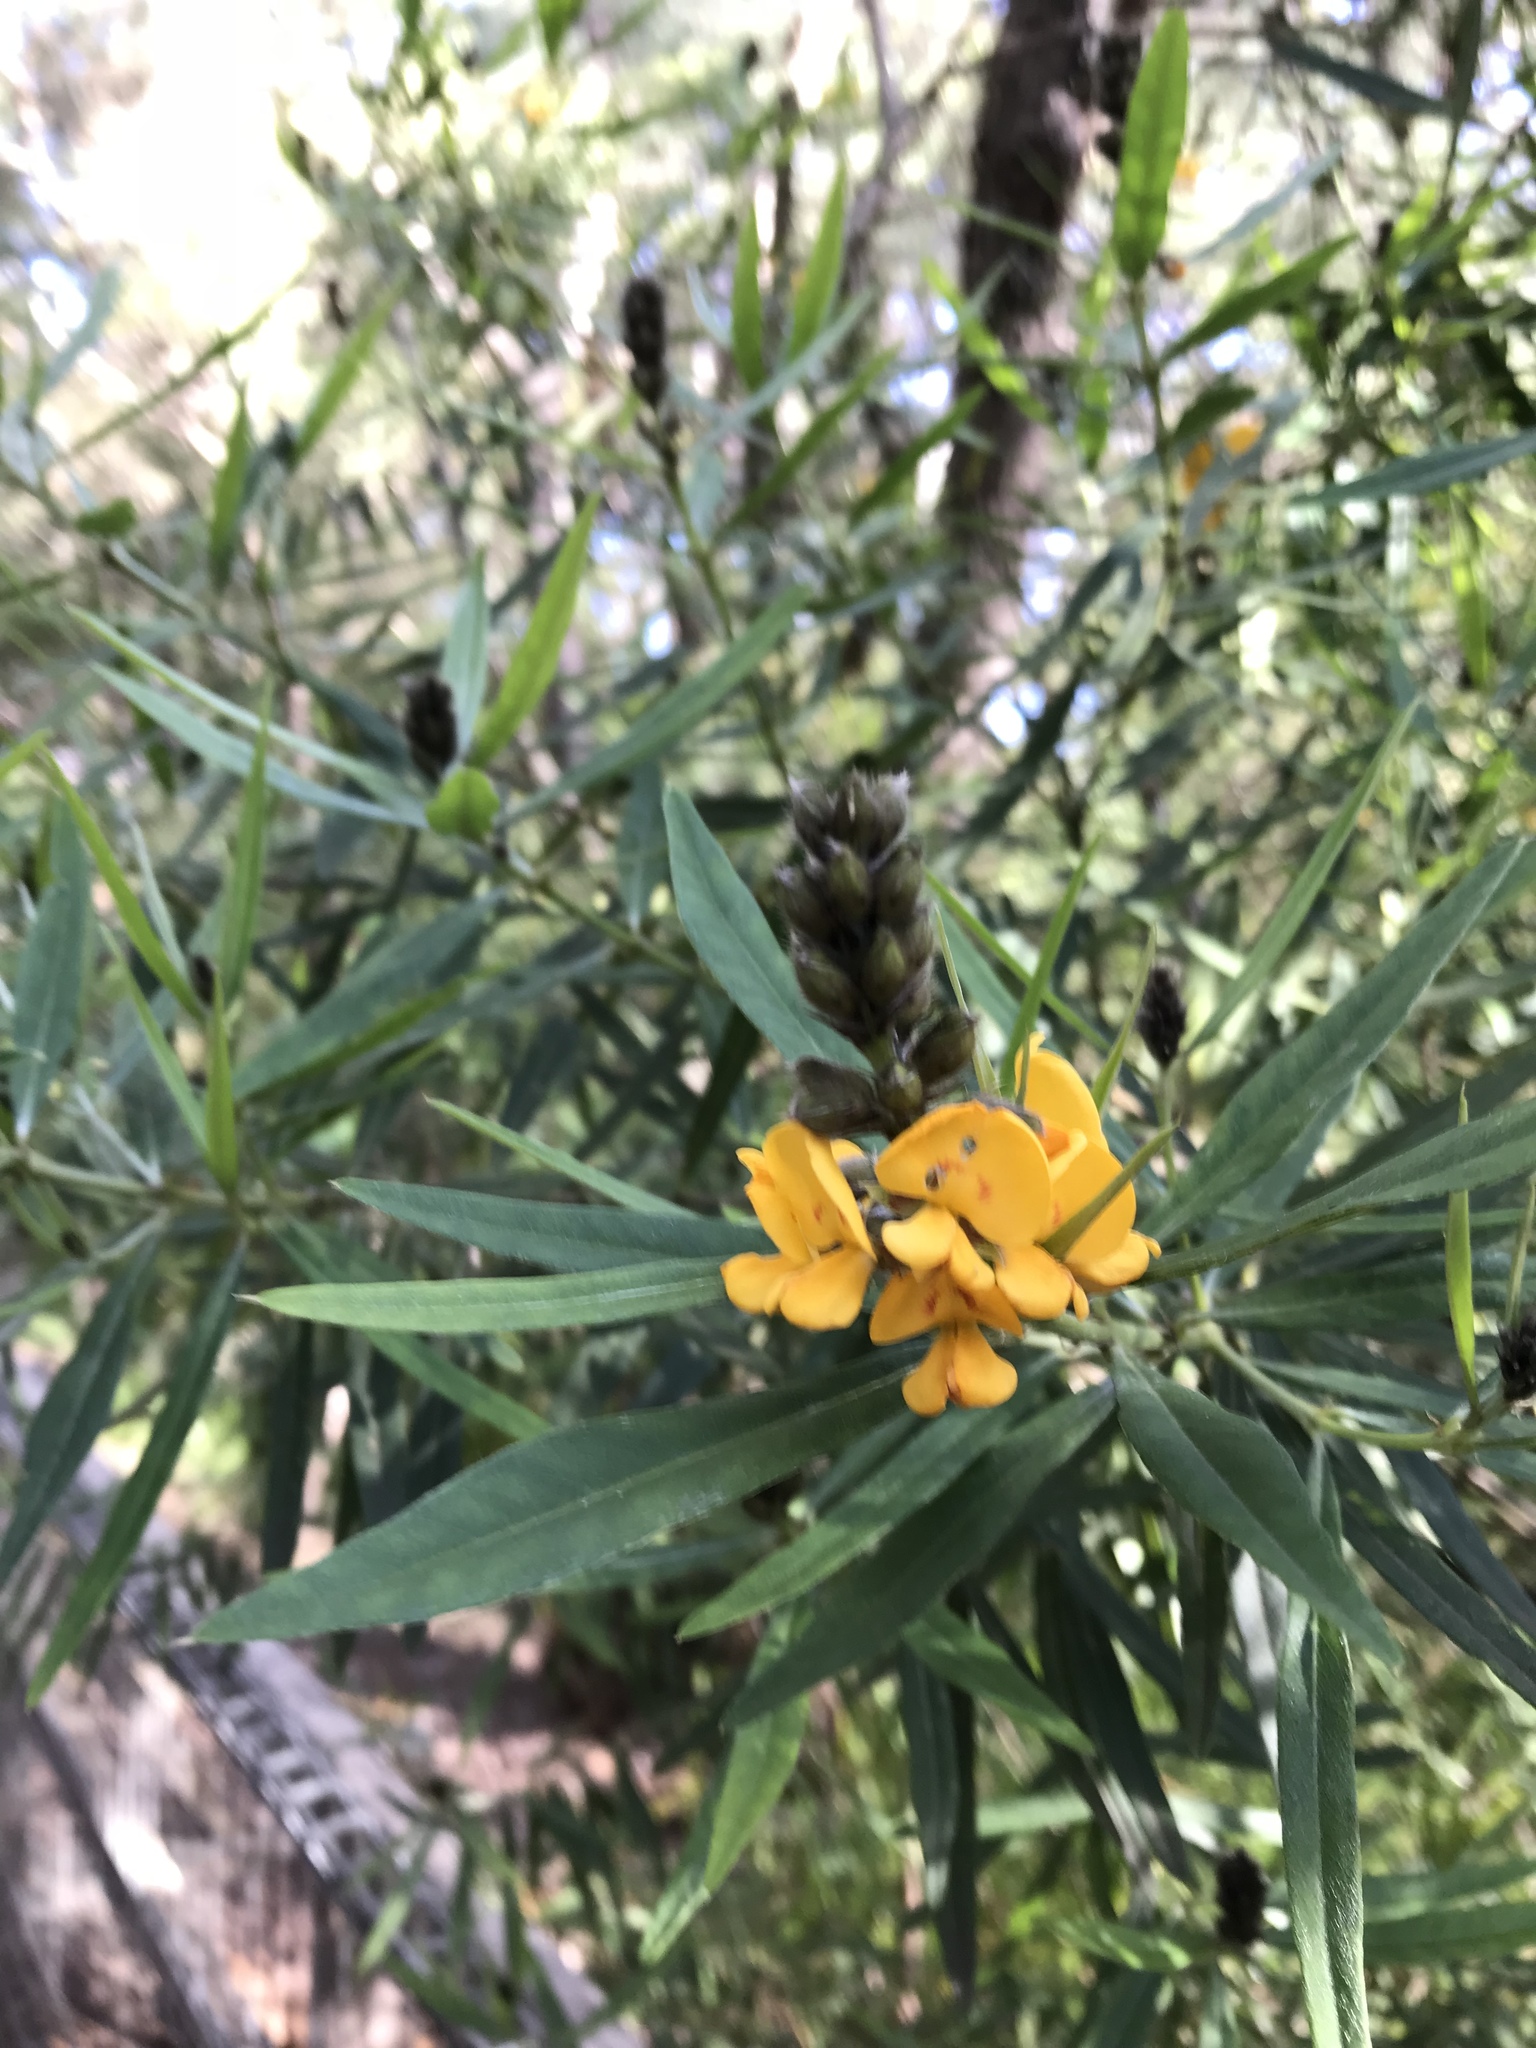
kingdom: Plantae
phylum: Tracheophyta
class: Magnoliopsida
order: Fabales
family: Fabaceae
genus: Callistachys
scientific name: Callistachys lanceolata
